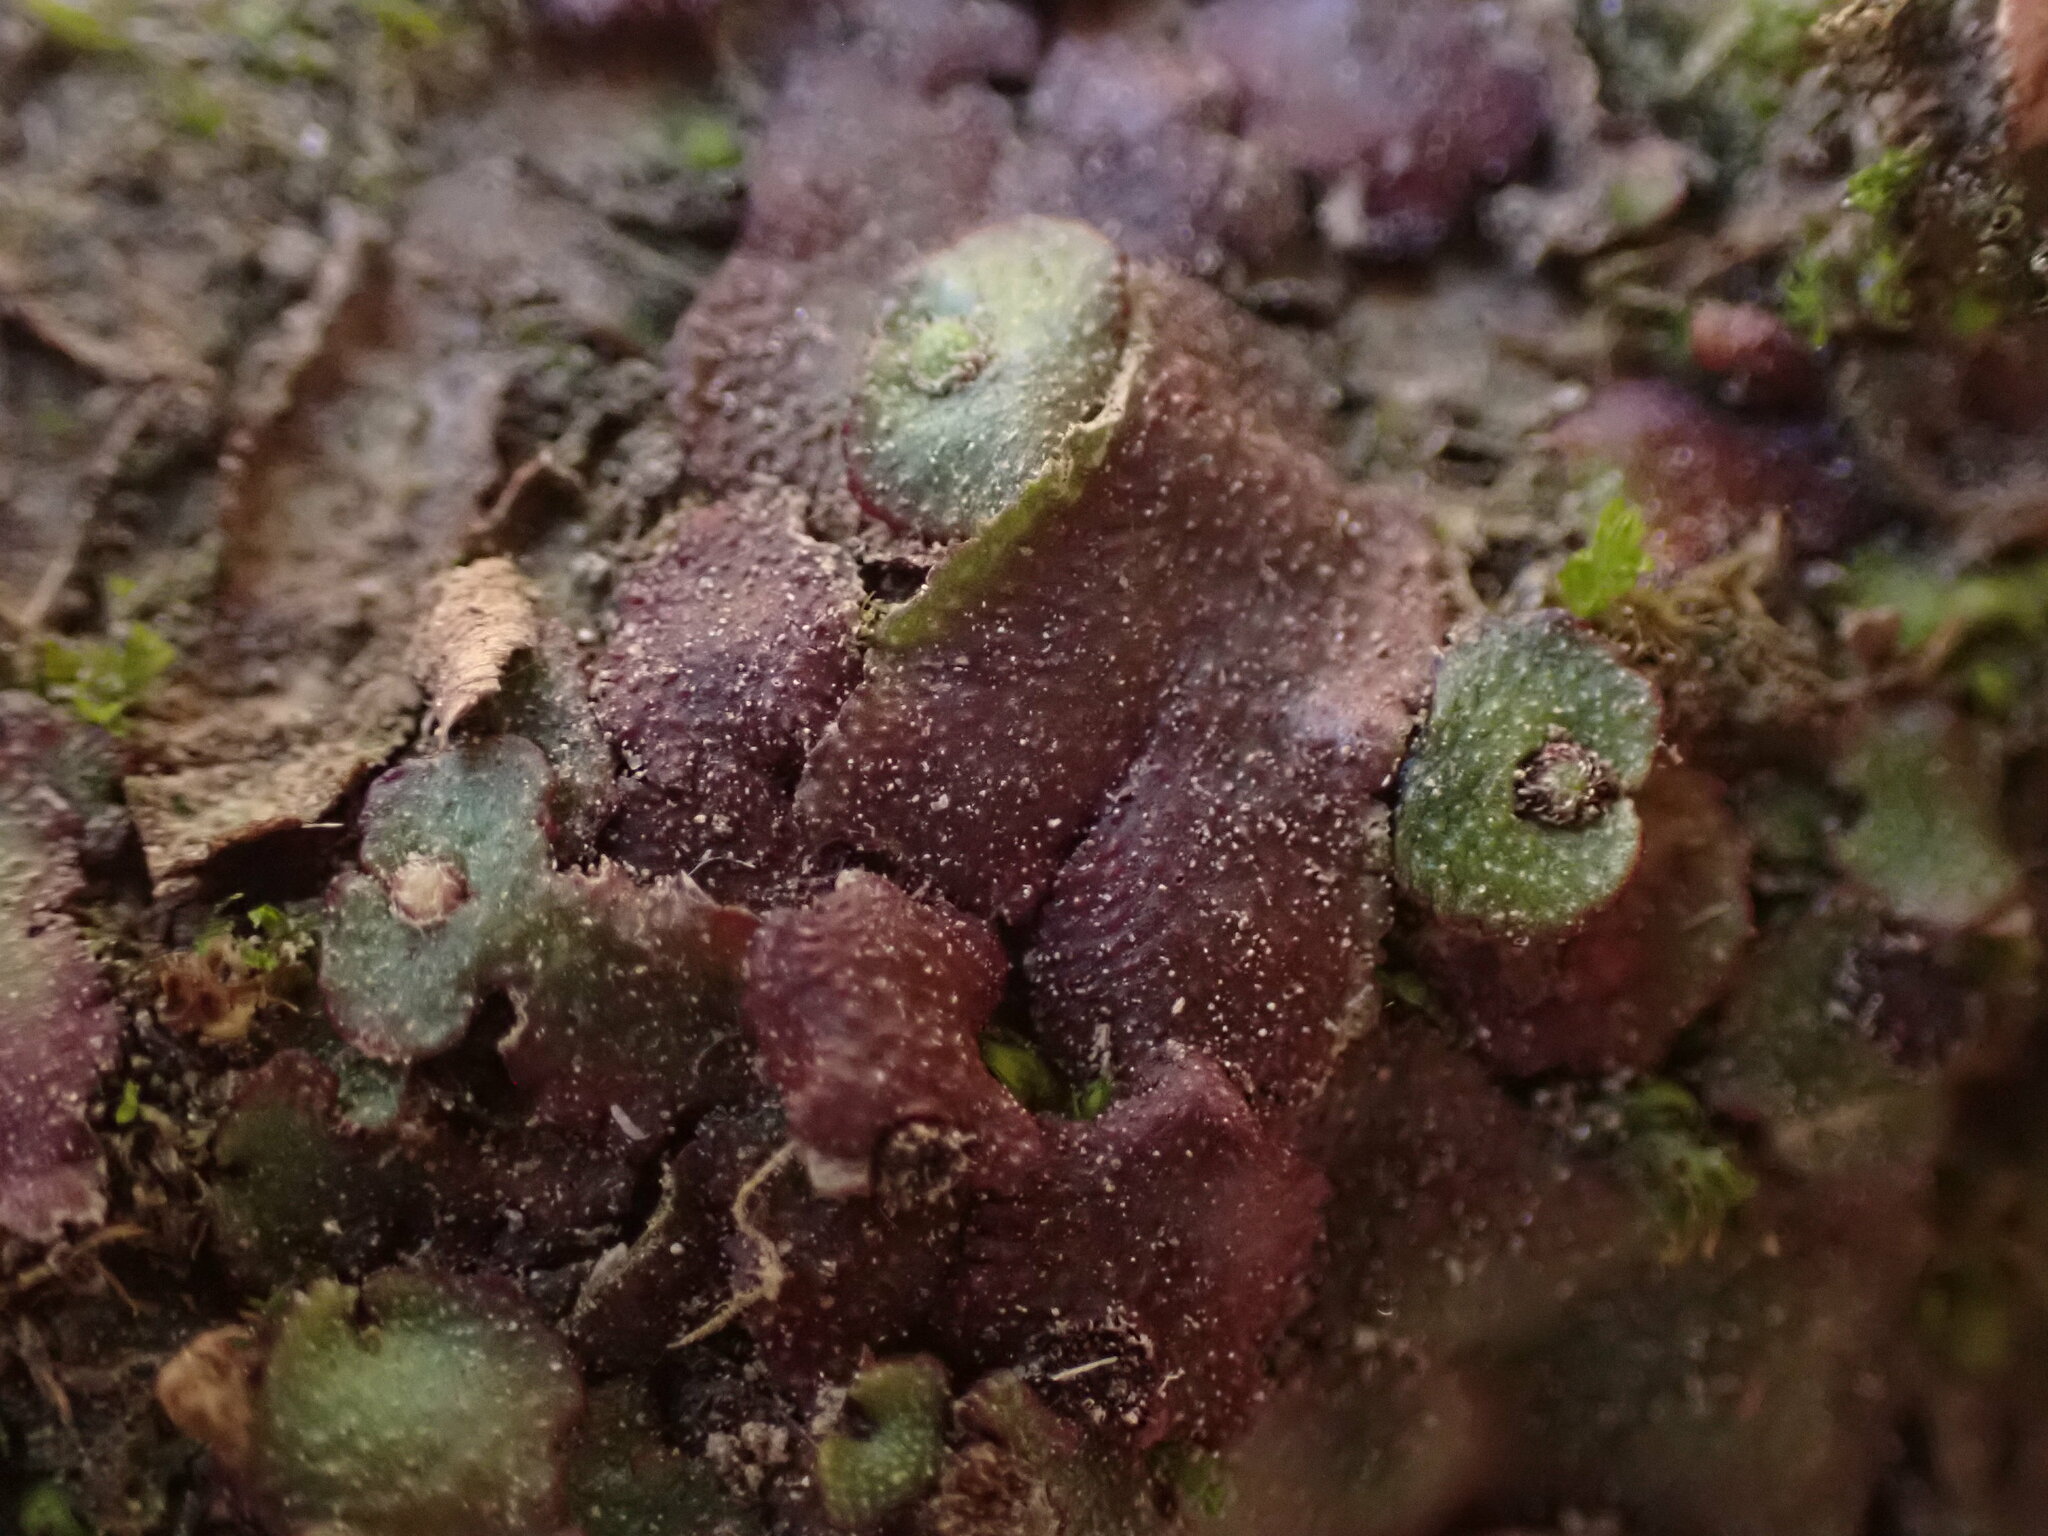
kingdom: Plantae
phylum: Marchantiophyta
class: Marchantiopsida
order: Marchantiales
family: Aytoniaceae
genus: Reboulia
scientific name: Reboulia hemisphaerica
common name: Purple-margined liverwort
